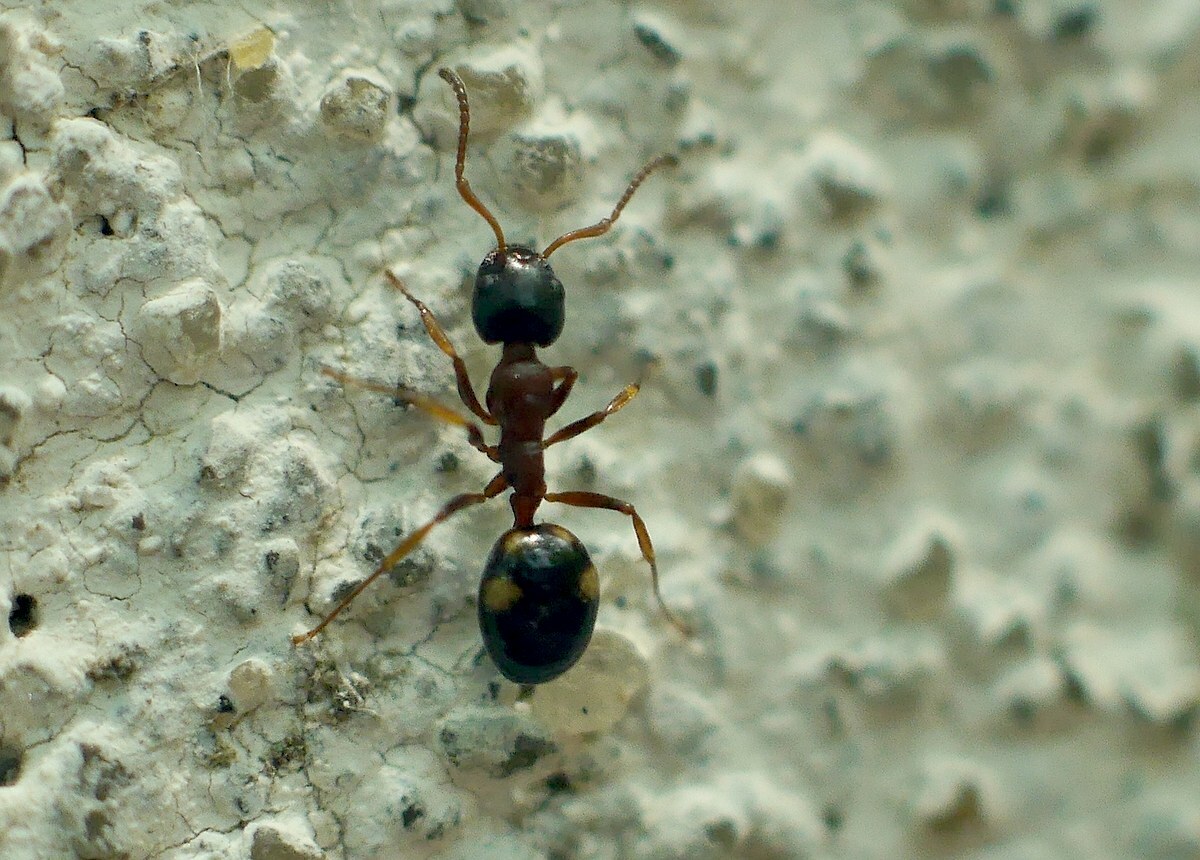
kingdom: Animalia
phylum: Arthropoda
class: Insecta
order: Hymenoptera
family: Formicidae
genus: Dolichoderus
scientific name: Dolichoderus quadripunctatus
